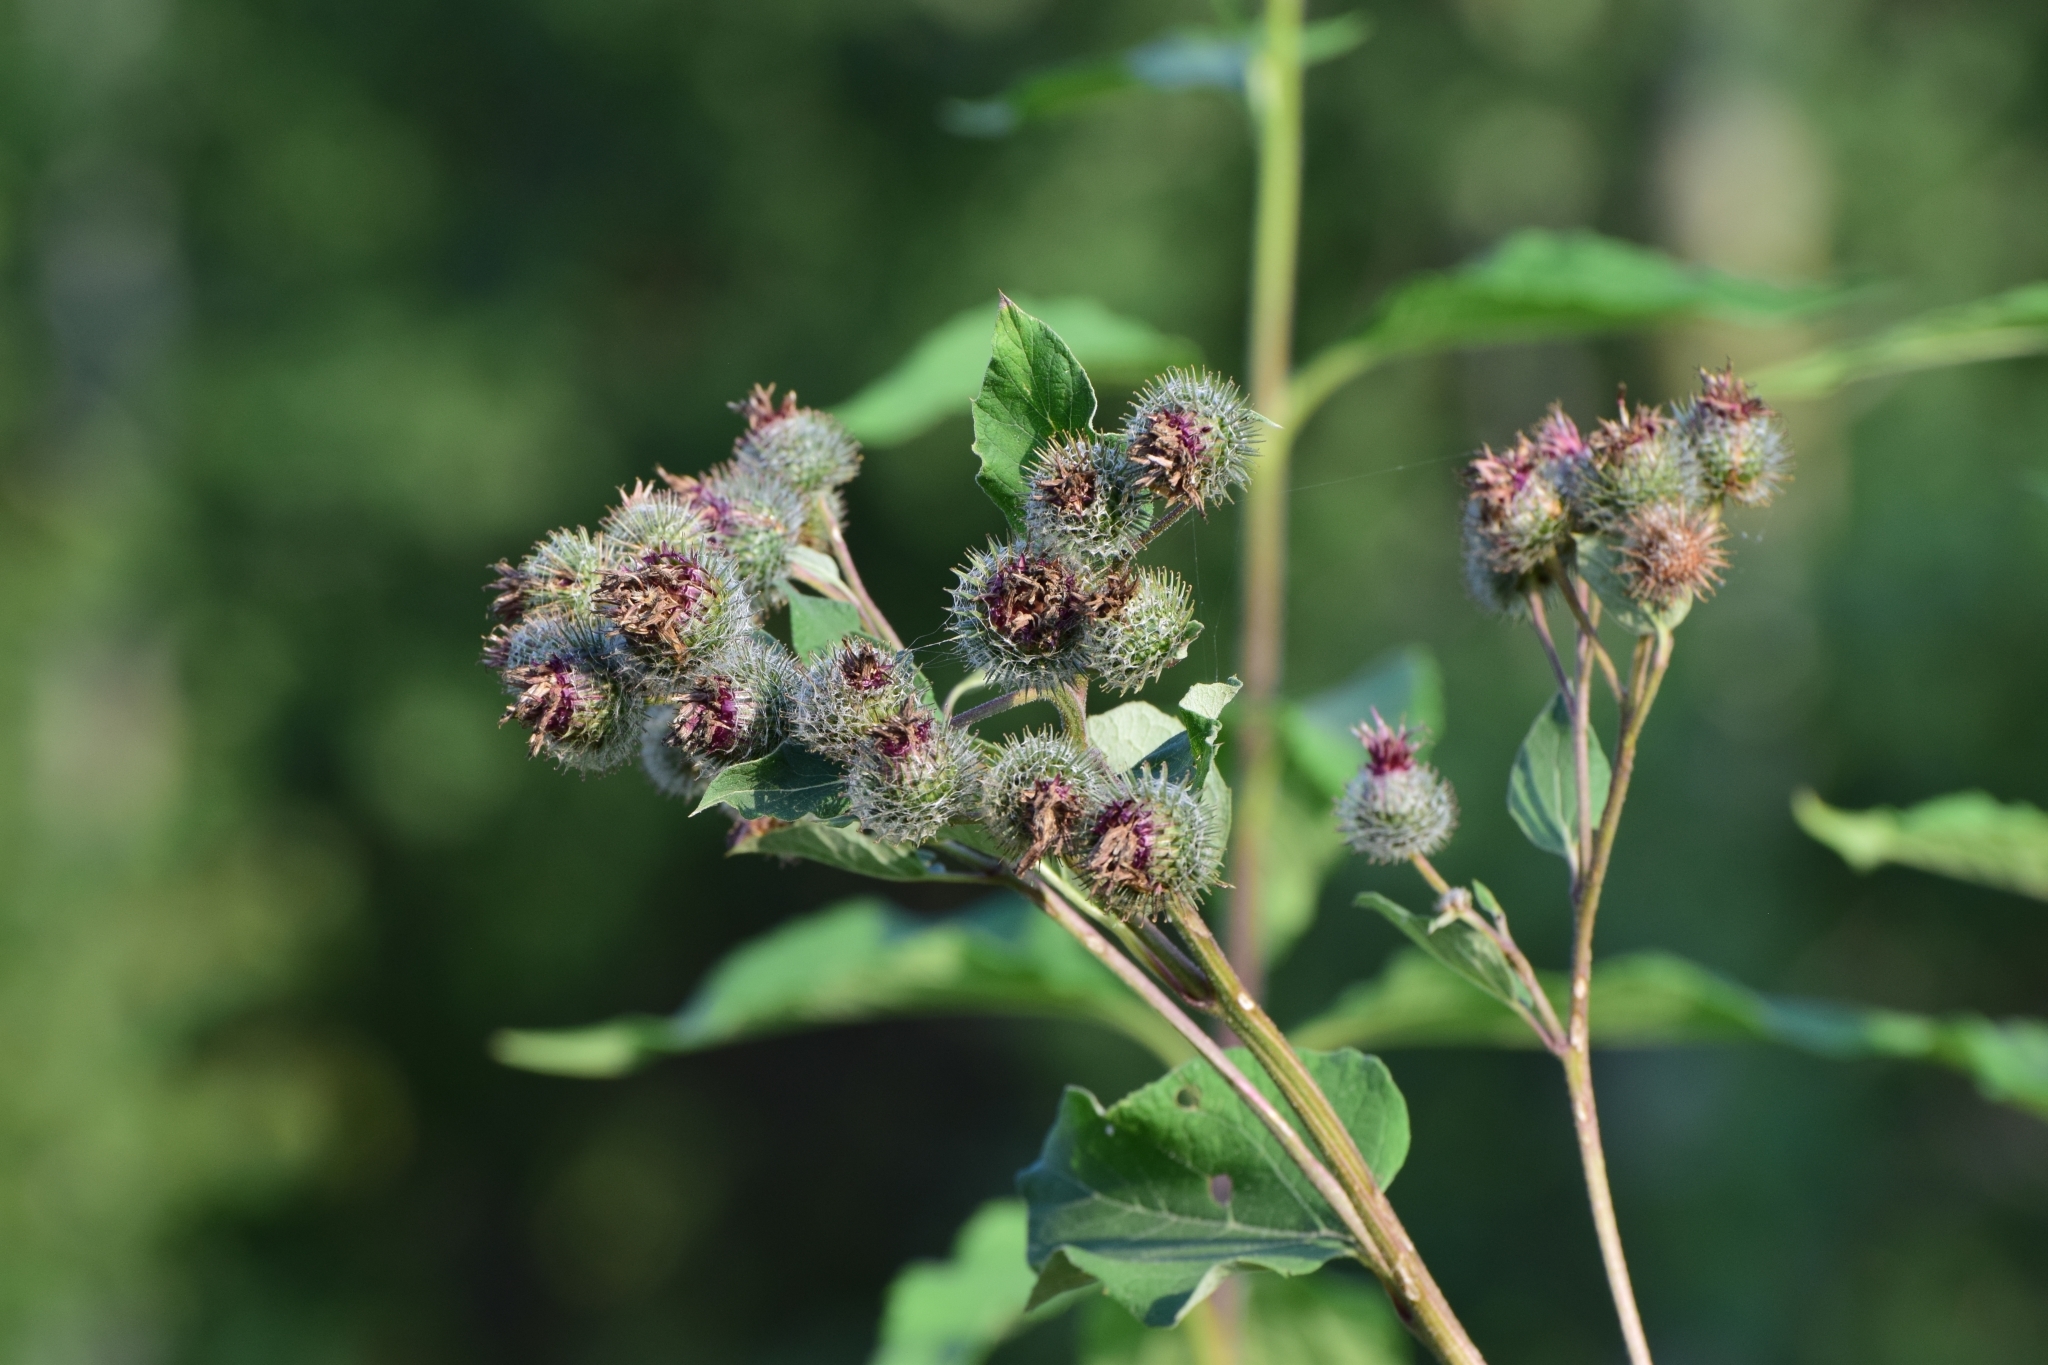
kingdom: Plantae
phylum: Tracheophyta
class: Magnoliopsida
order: Asterales
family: Asteraceae
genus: Arctium
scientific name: Arctium tomentosum
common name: Woolly burdock
